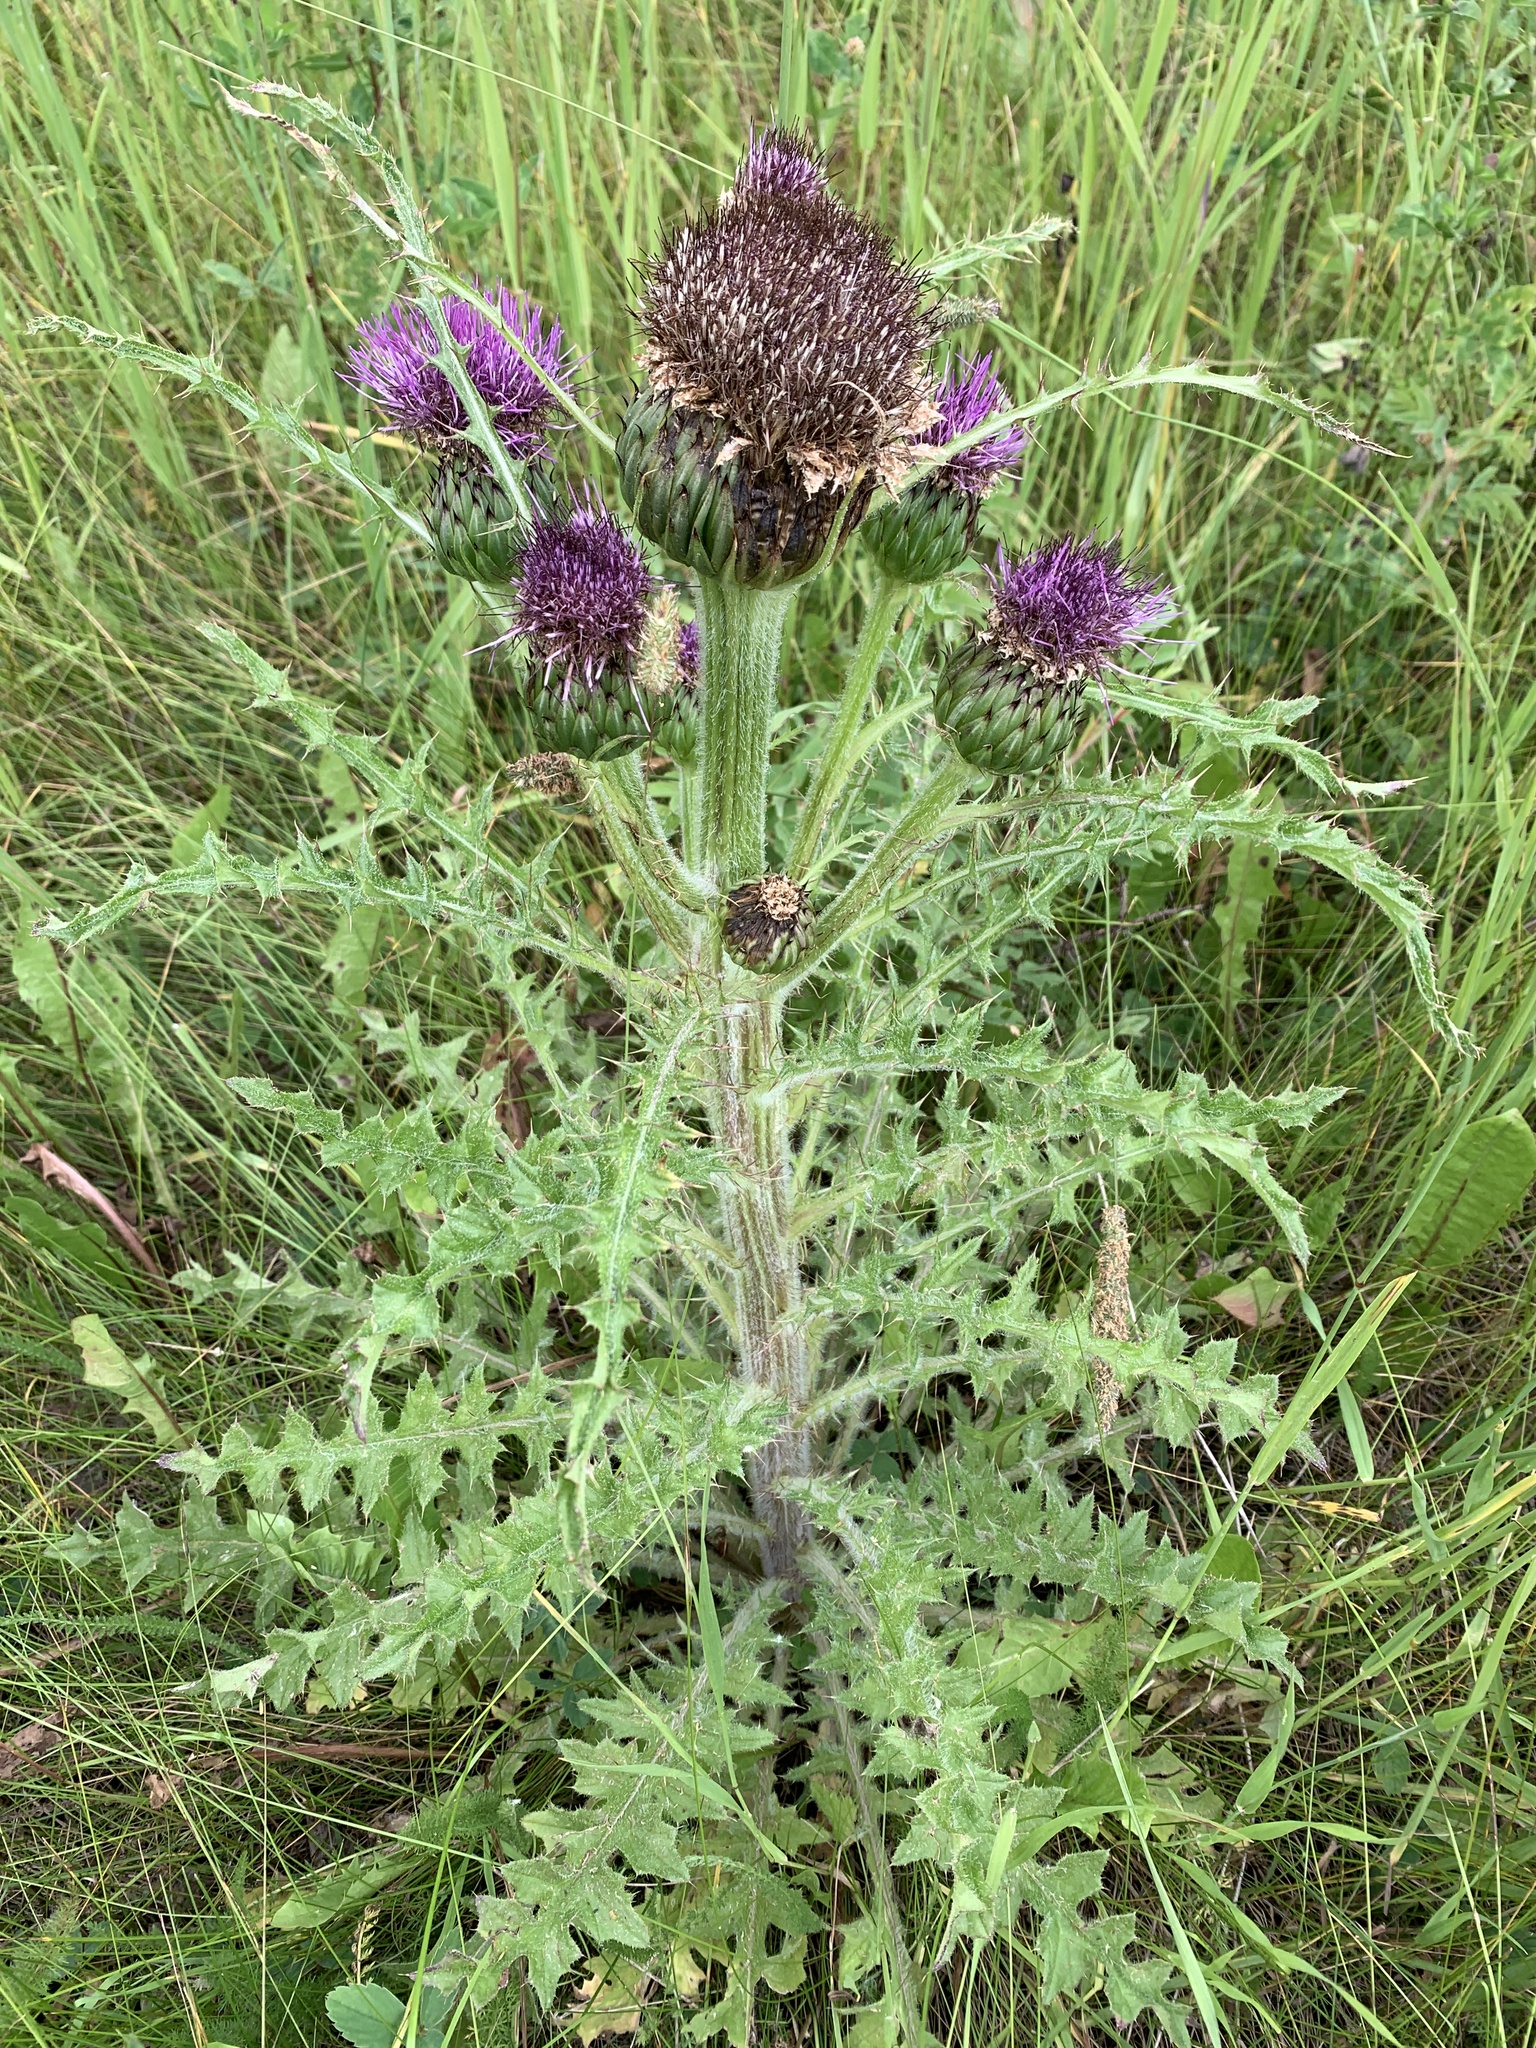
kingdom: Plantae
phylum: Tracheophyta
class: Magnoliopsida
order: Asterales
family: Asteraceae
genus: Cirsium
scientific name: Cirsium drummondii
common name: Drummond's thistle
